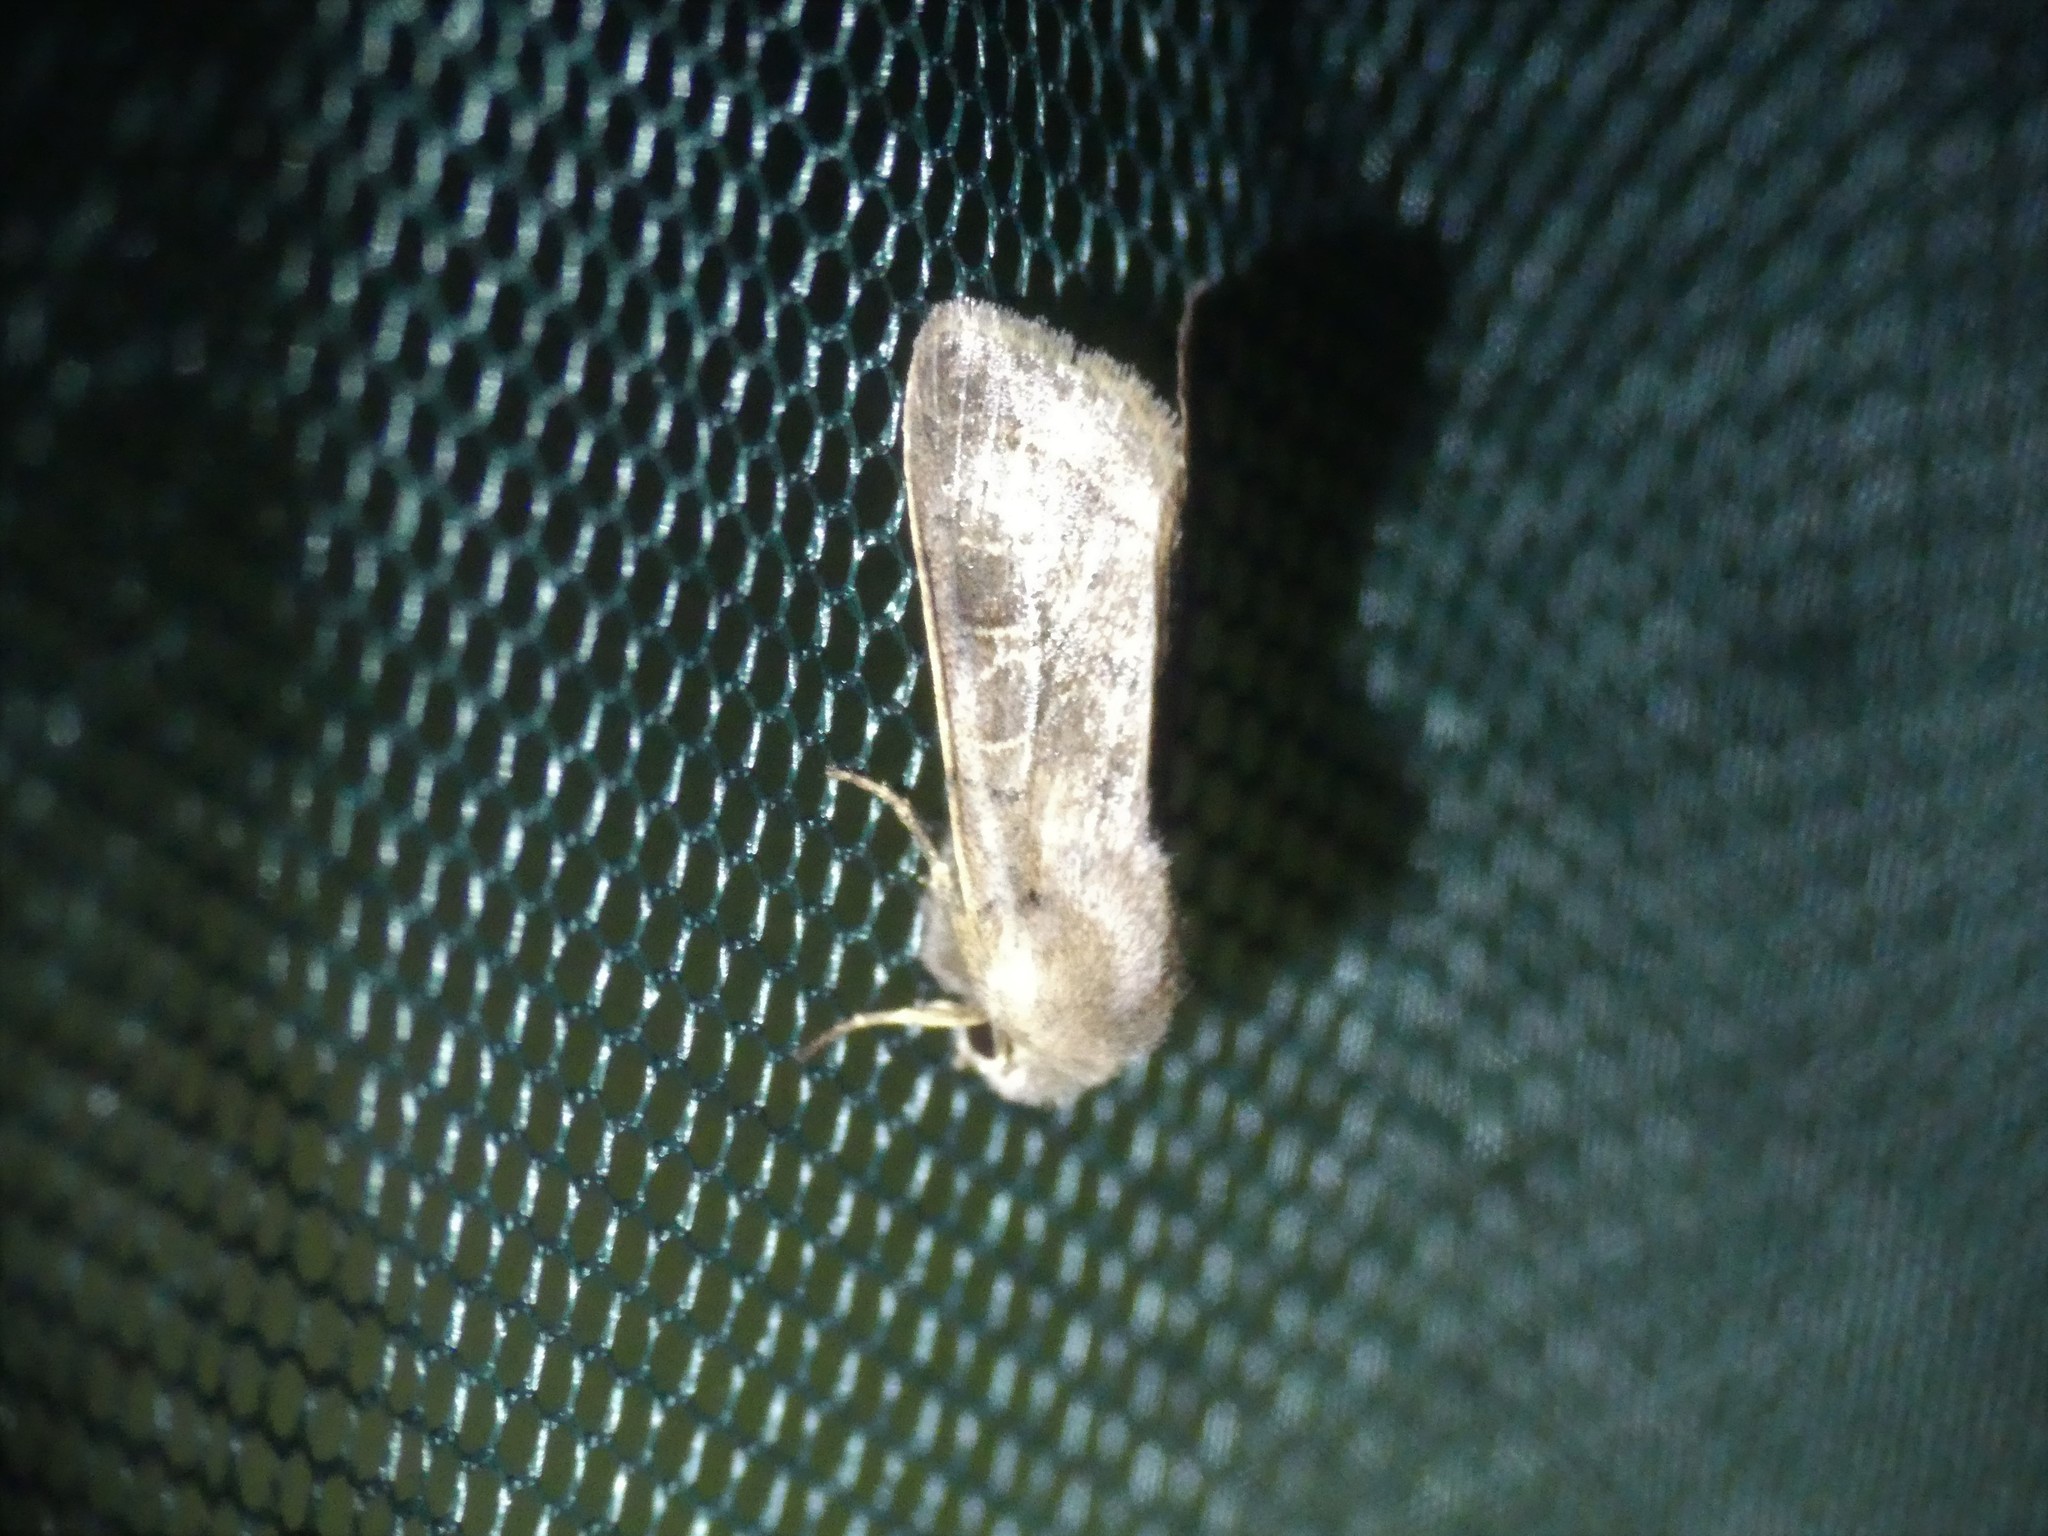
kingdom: Animalia
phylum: Arthropoda
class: Insecta
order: Lepidoptera
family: Noctuidae
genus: Orthosia
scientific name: Orthosia cerasi
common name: Common quaker
